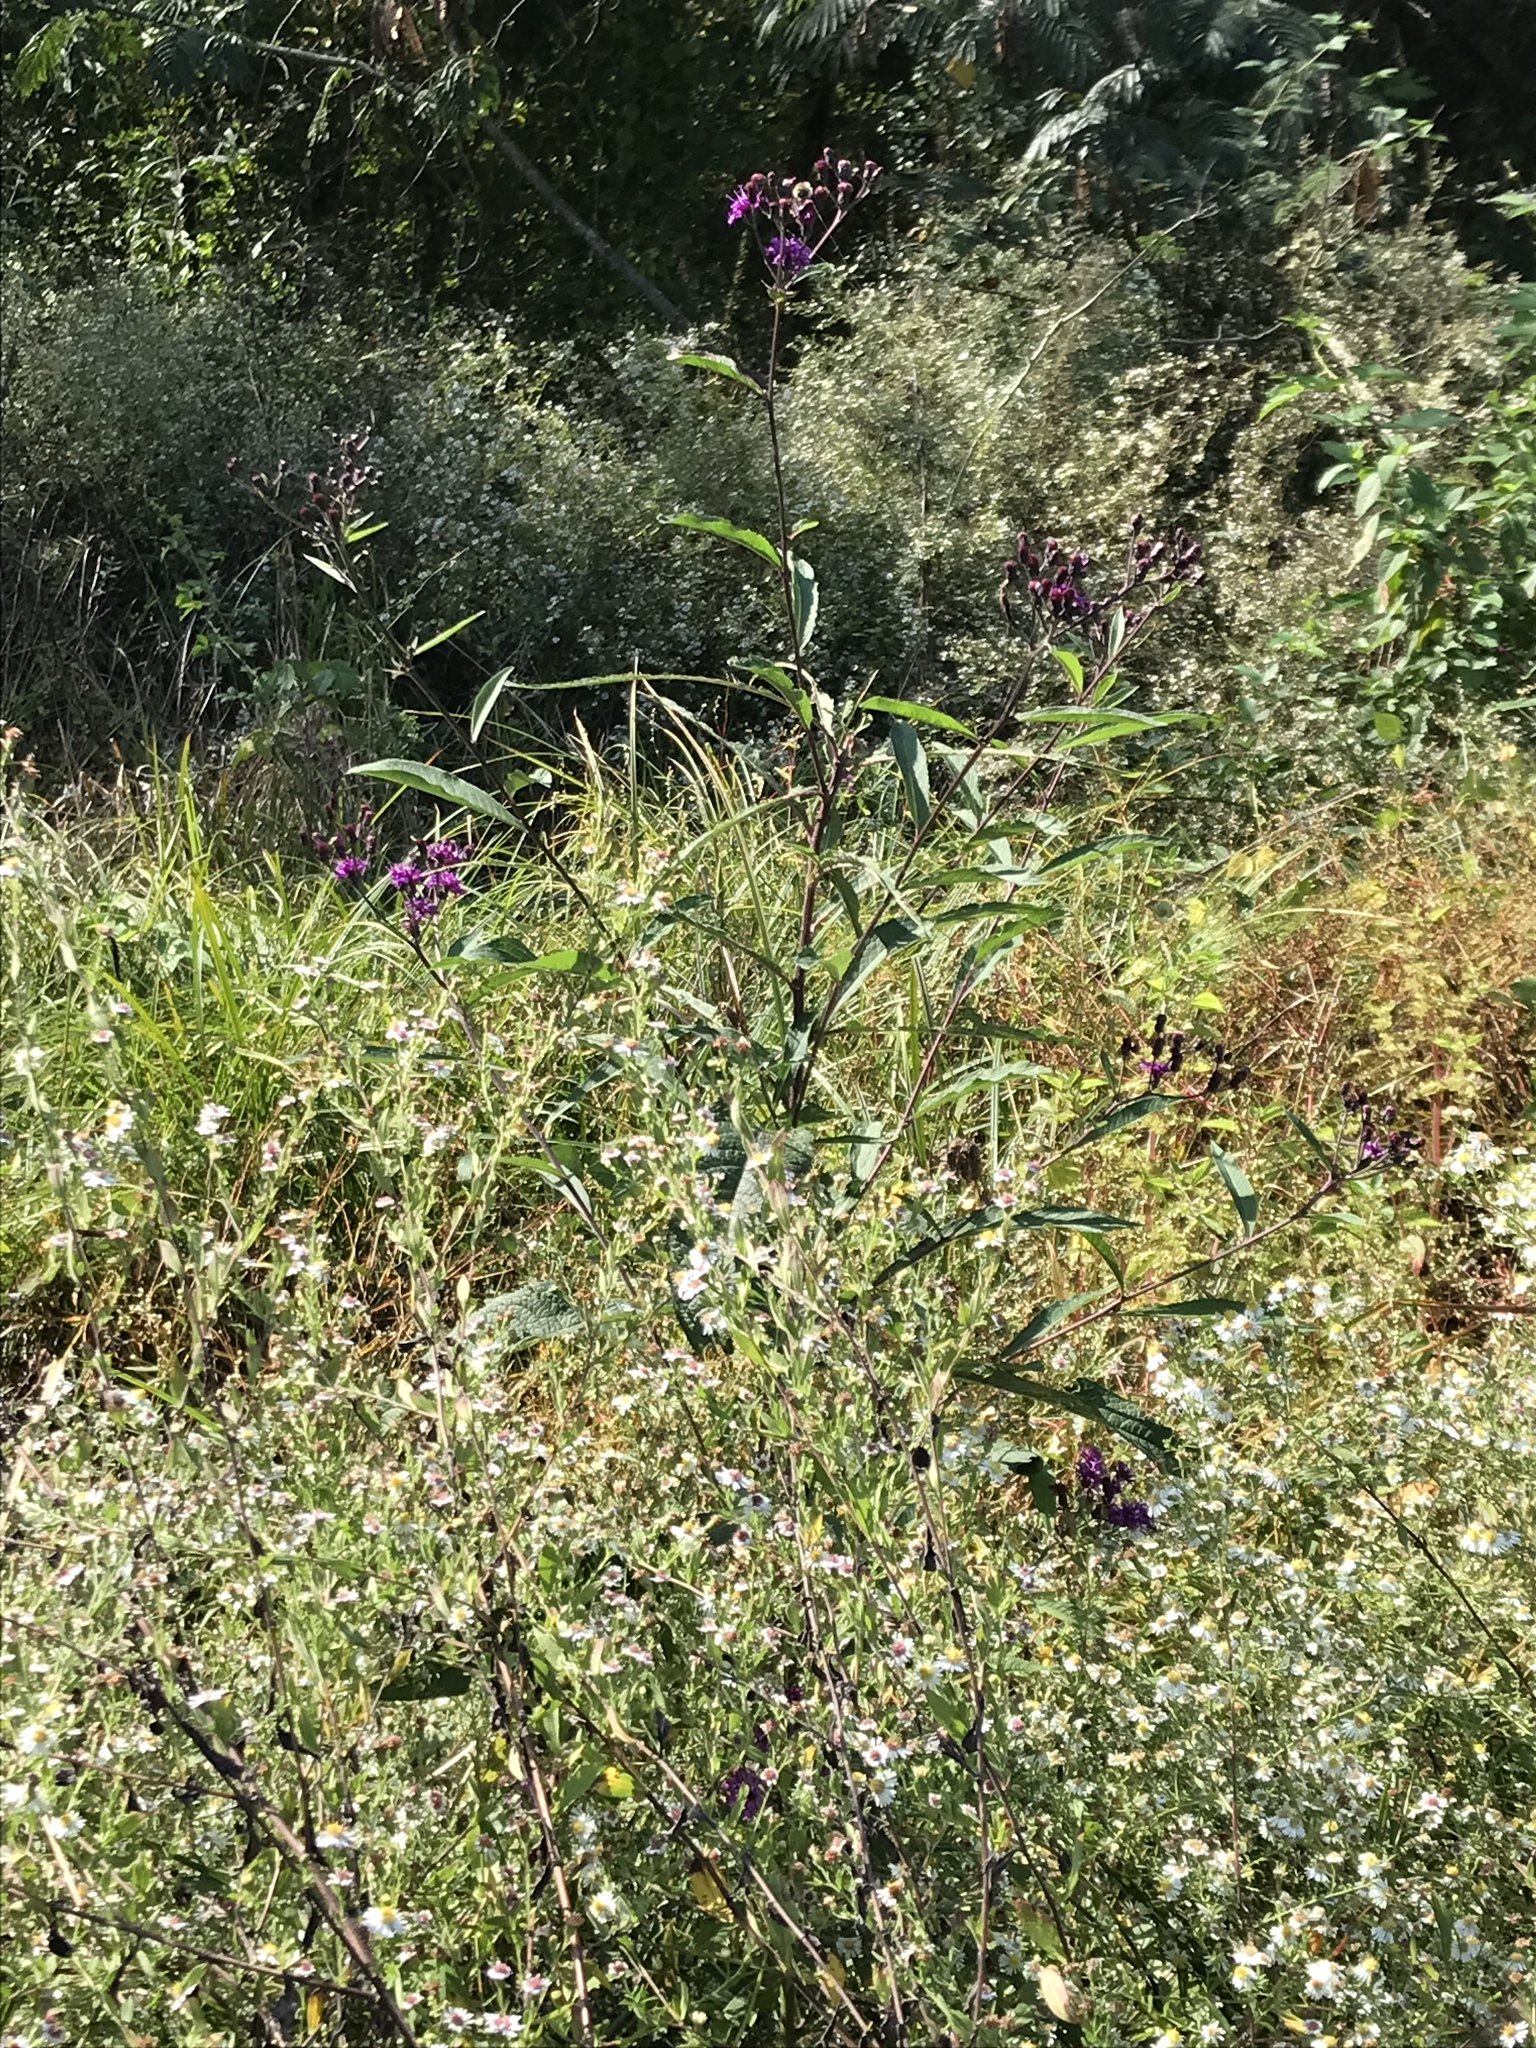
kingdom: Plantae
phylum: Tracheophyta
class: Magnoliopsida
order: Asterales
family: Asteraceae
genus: Vernonia
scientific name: Vernonia gigantea
